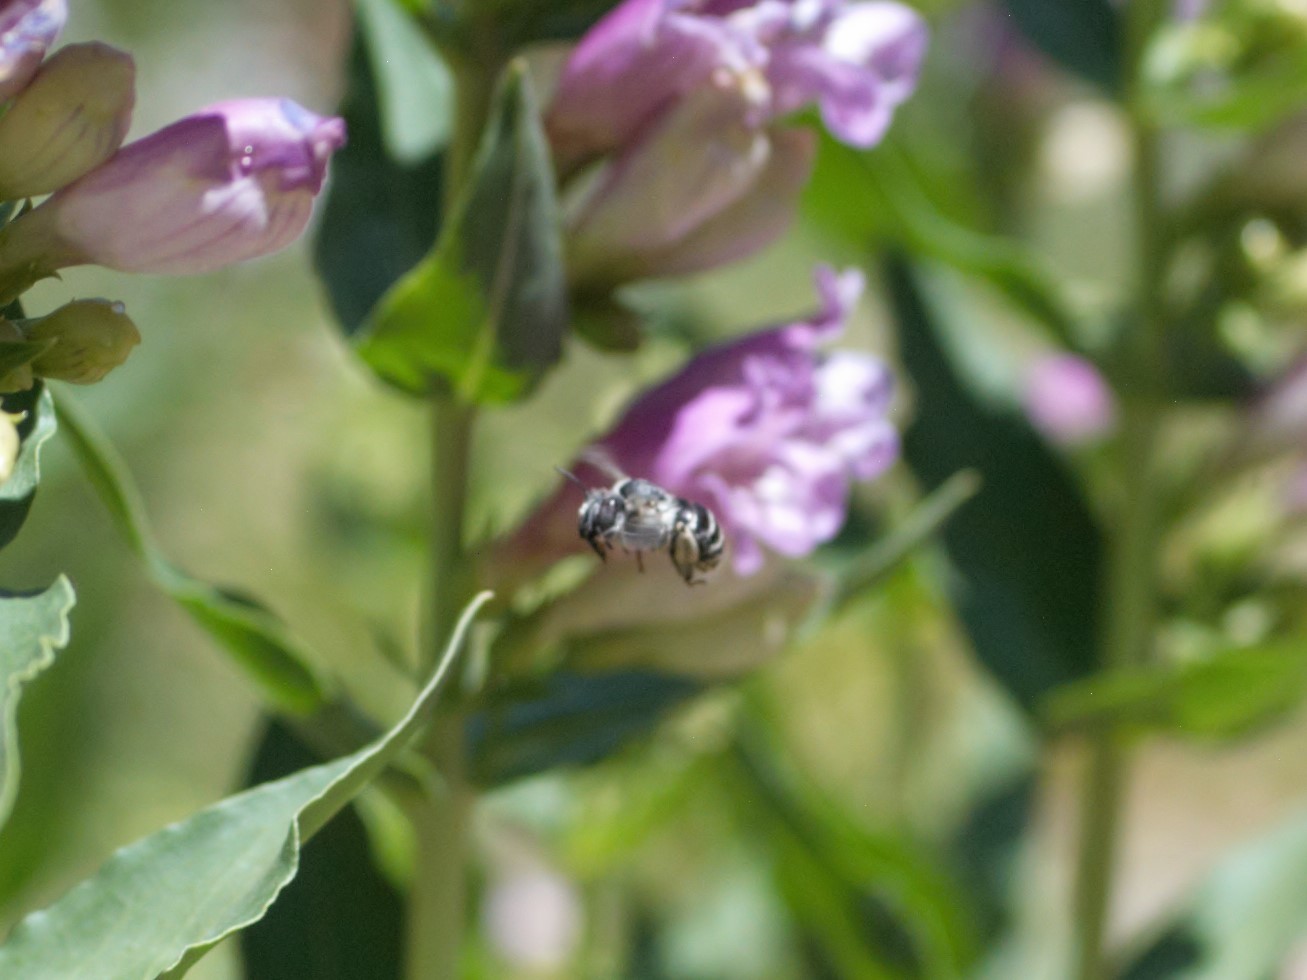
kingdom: Animalia
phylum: Arthropoda
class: Insecta
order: Hymenoptera
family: Apidae
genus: Anthophora
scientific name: Anthophora urbana
